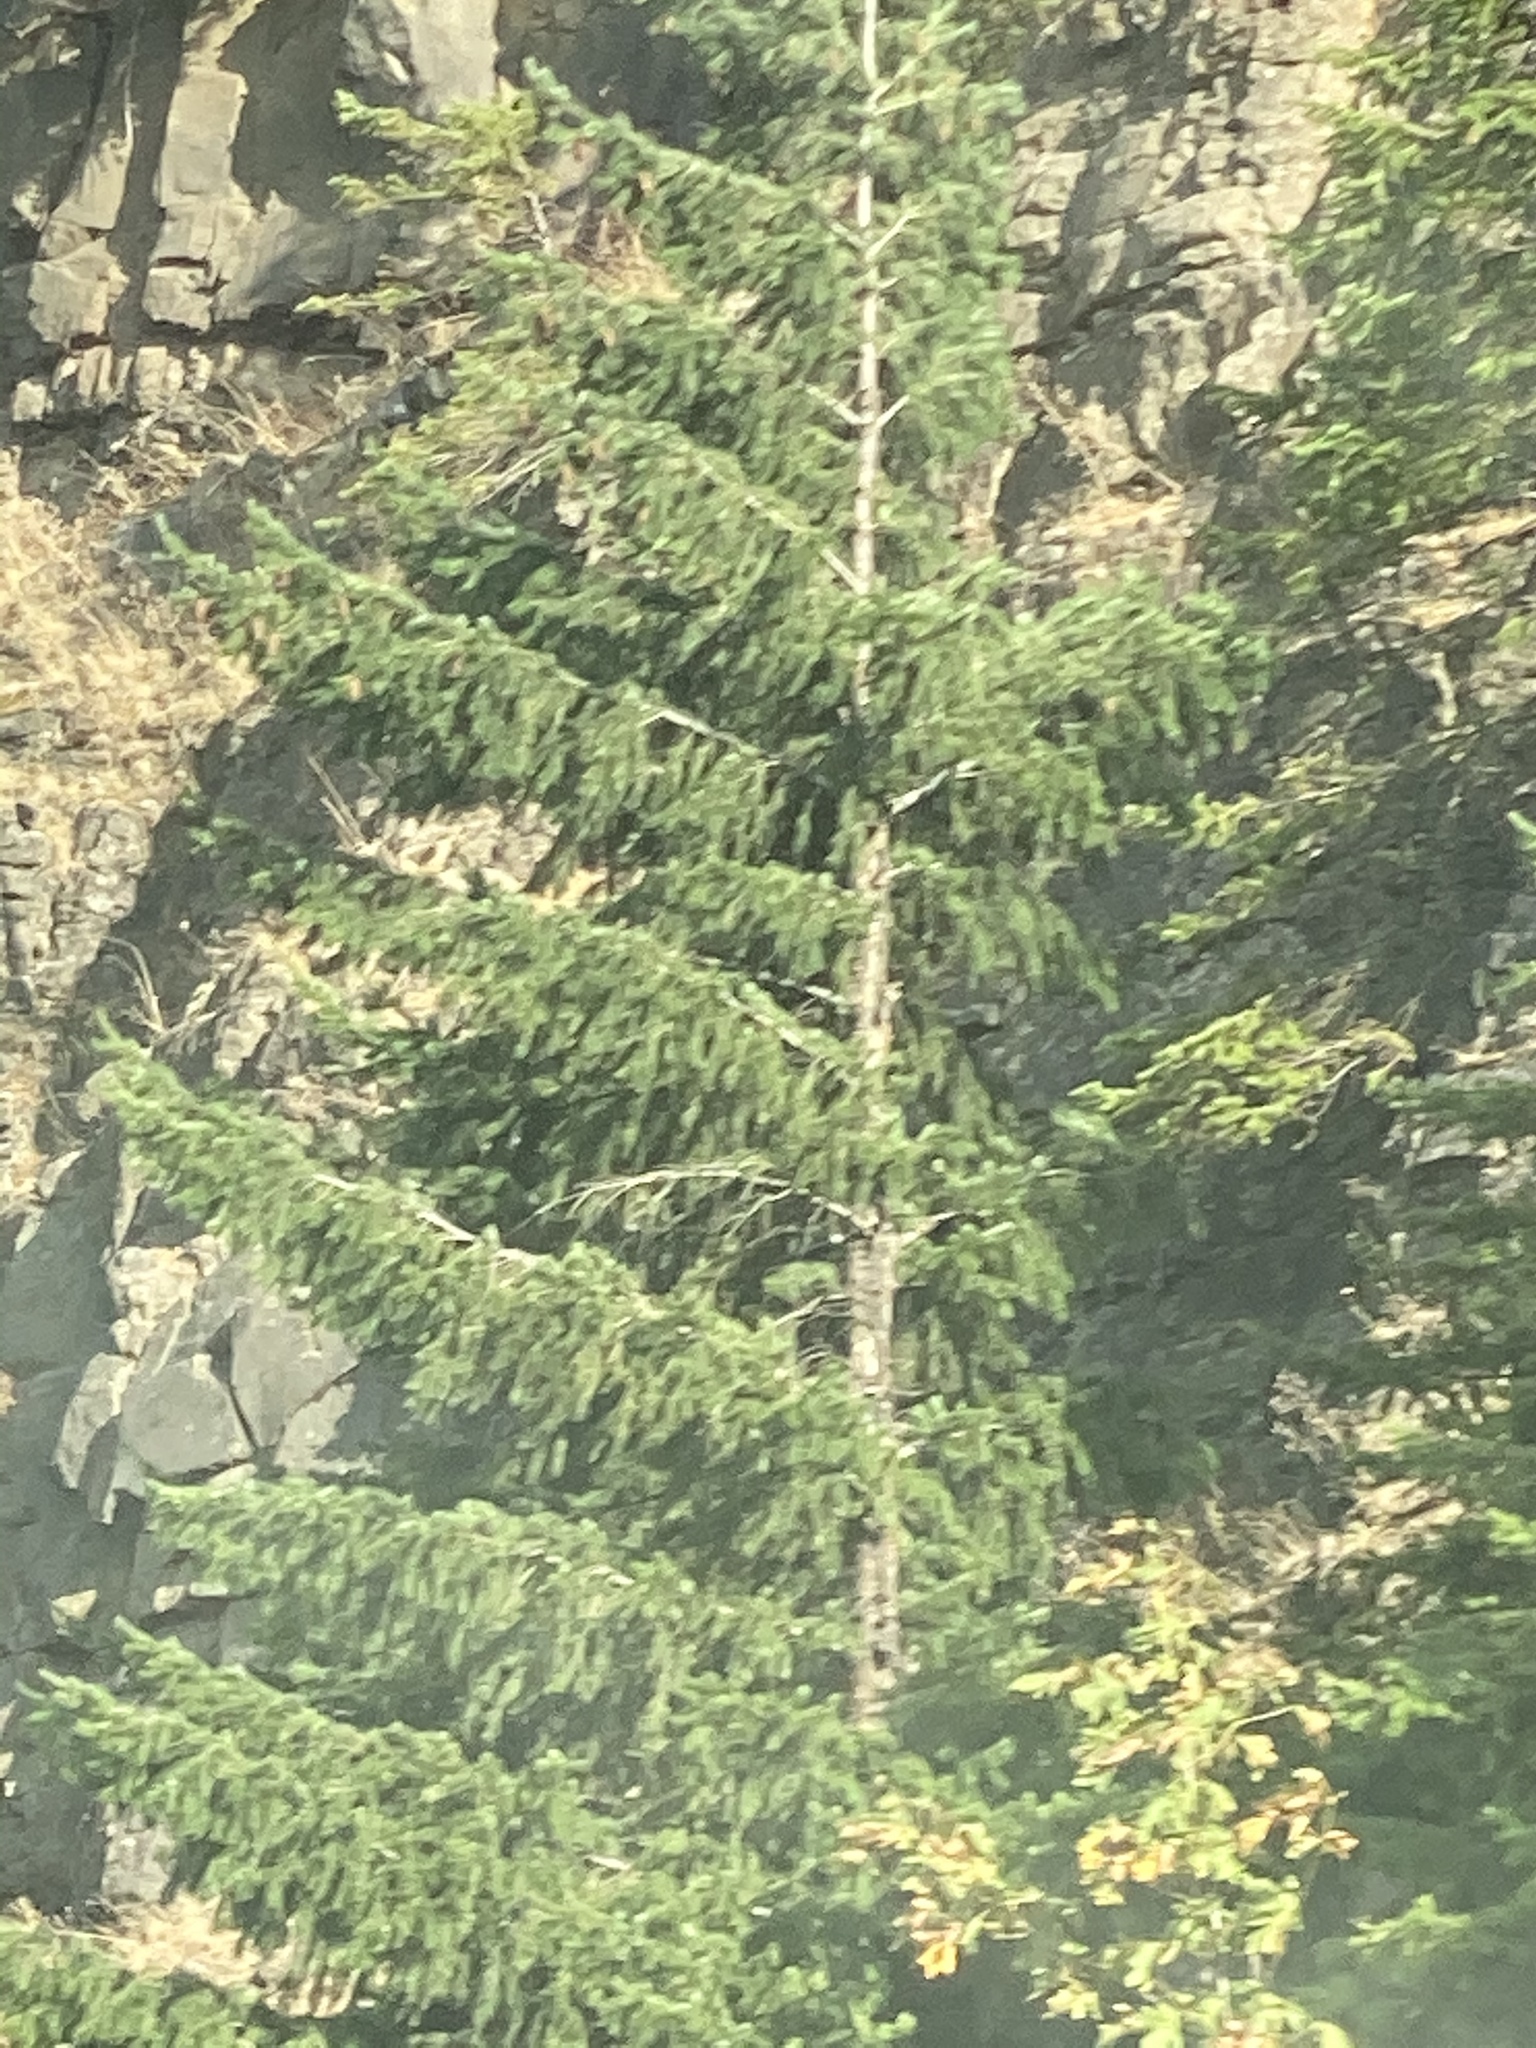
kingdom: Plantae
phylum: Tracheophyta
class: Pinopsida
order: Pinales
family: Pinaceae
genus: Pseudotsuga
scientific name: Pseudotsuga menziesii
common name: Douglas fir
